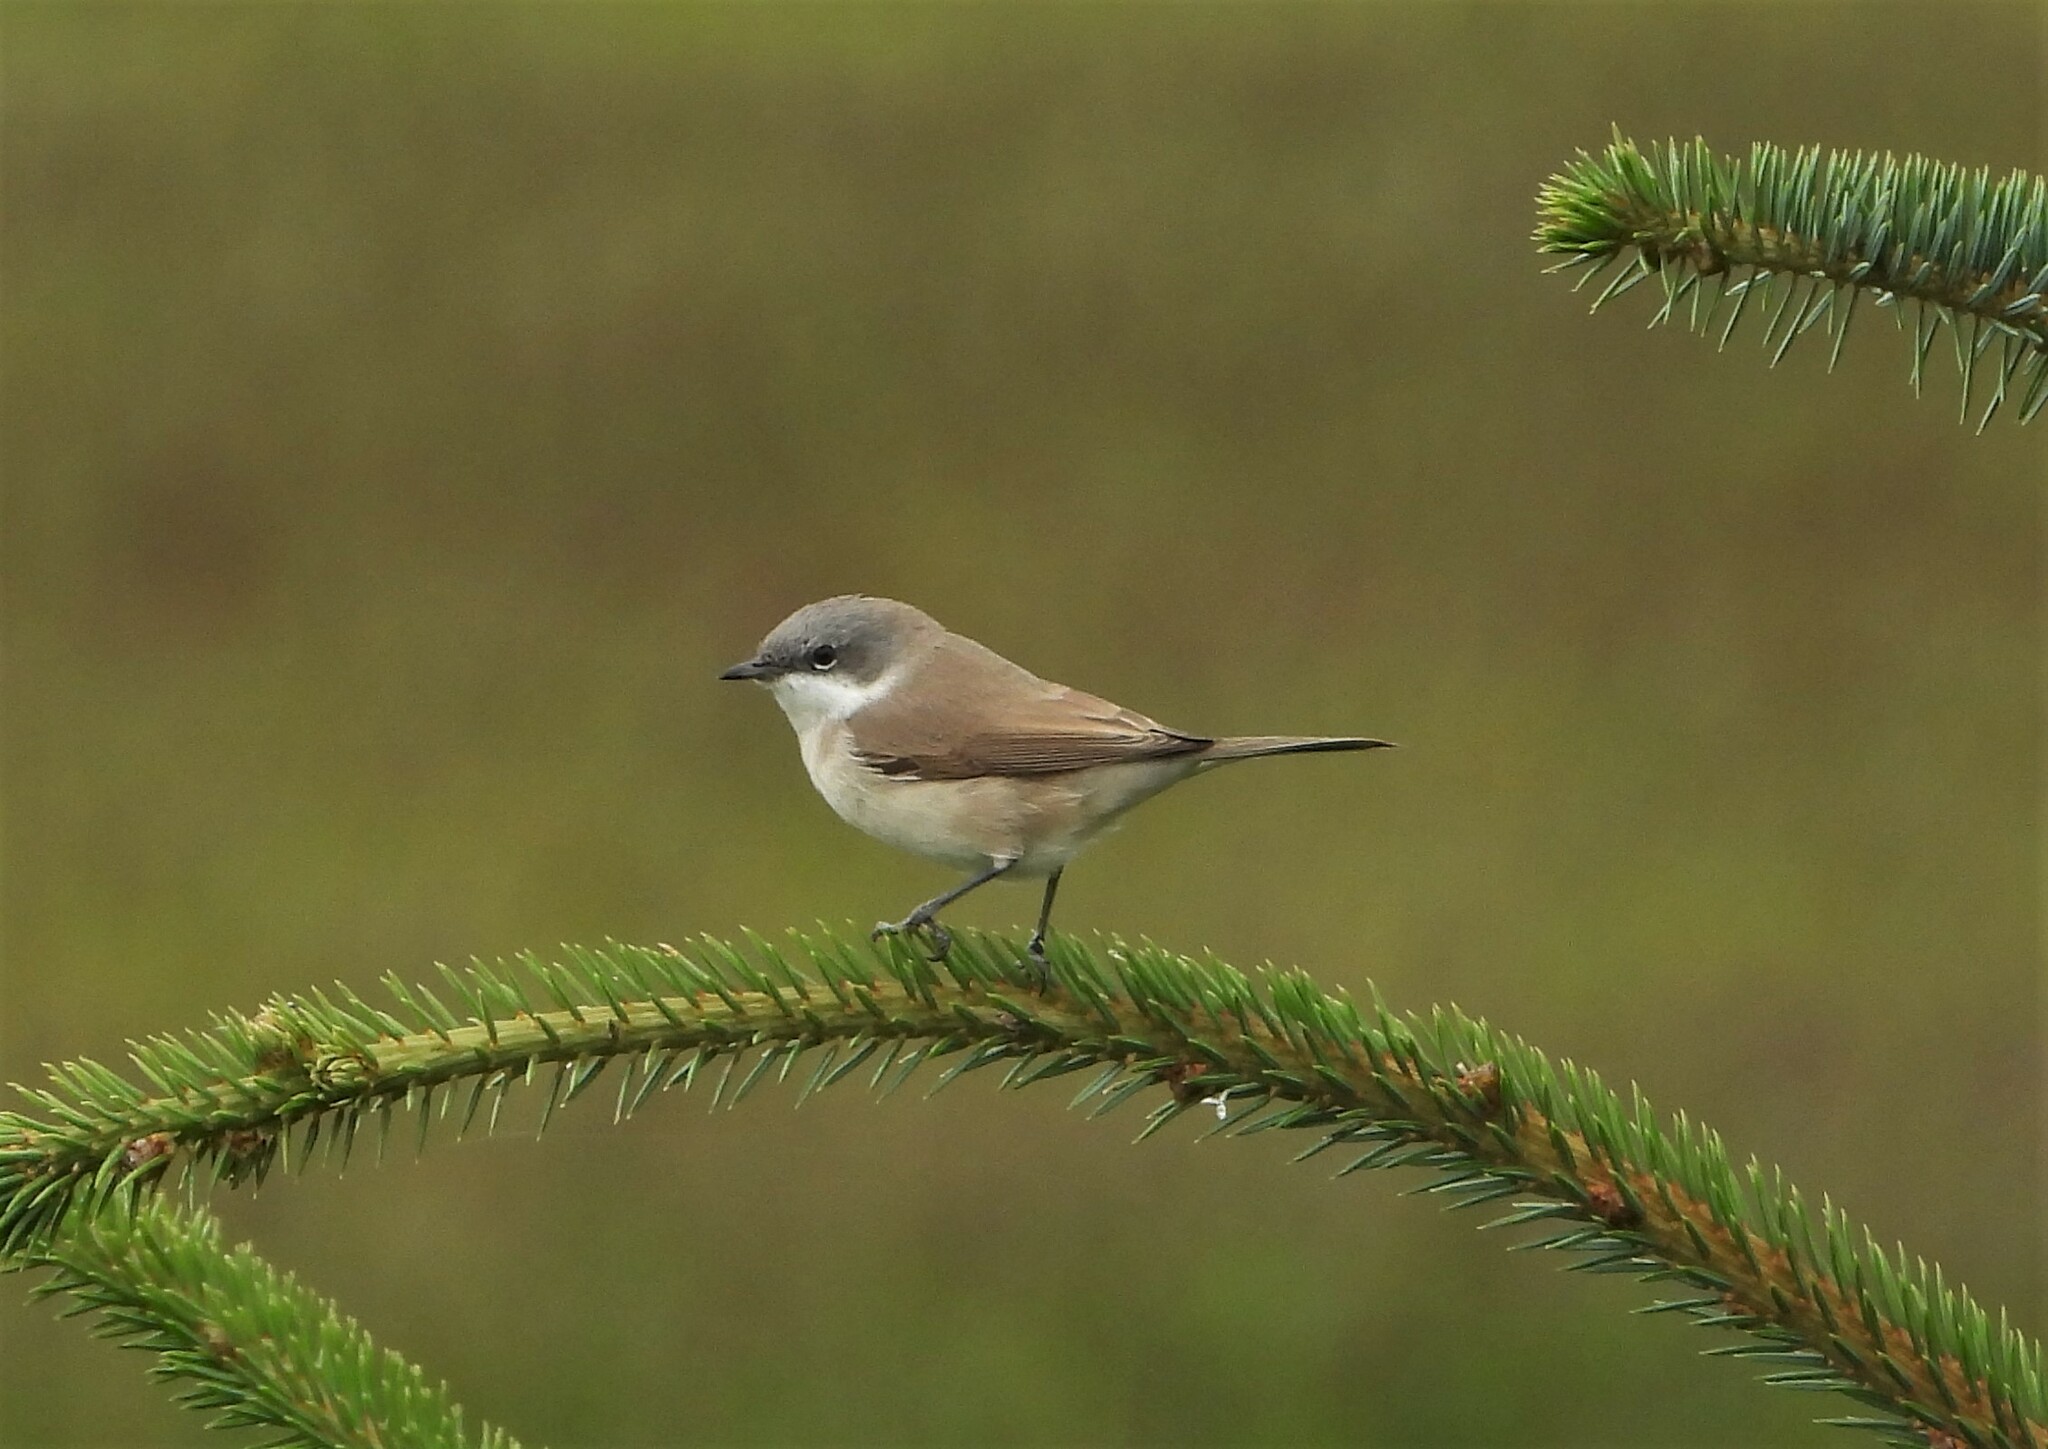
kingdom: Animalia
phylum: Chordata
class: Aves
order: Passeriformes
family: Sylviidae
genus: Sylvia
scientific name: Sylvia curruca
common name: Lesser whitethroat
